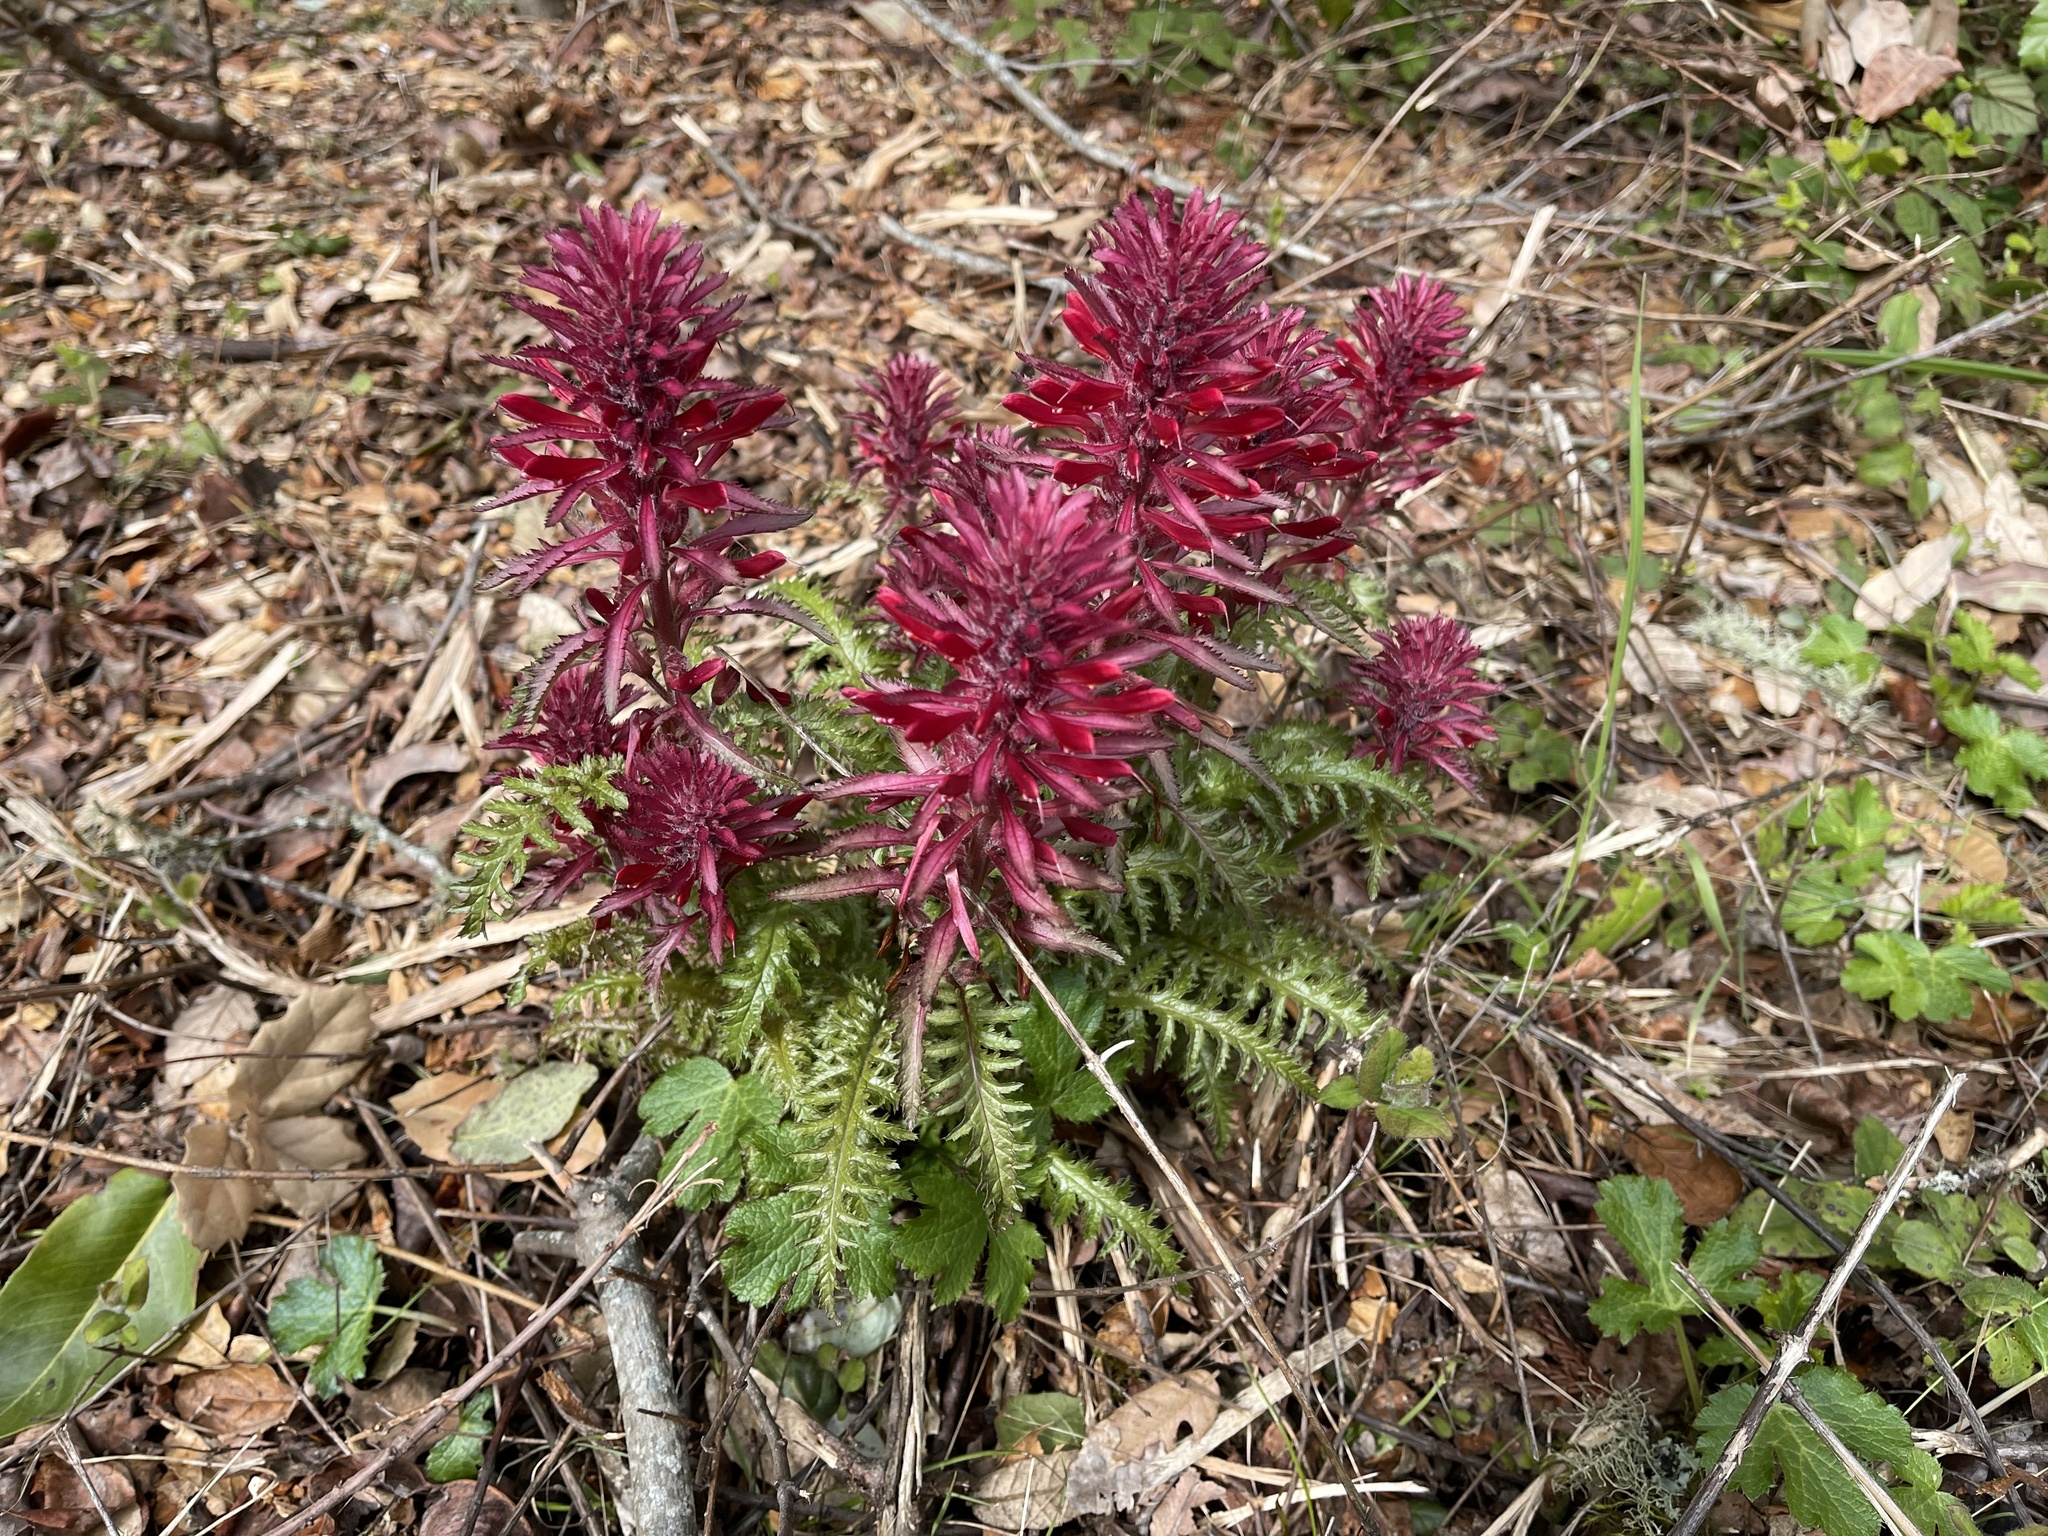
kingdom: Plantae
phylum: Tracheophyta
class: Magnoliopsida
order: Lamiales
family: Orobanchaceae
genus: Pedicularis
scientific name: Pedicularis densiflora
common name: Indian warrior
